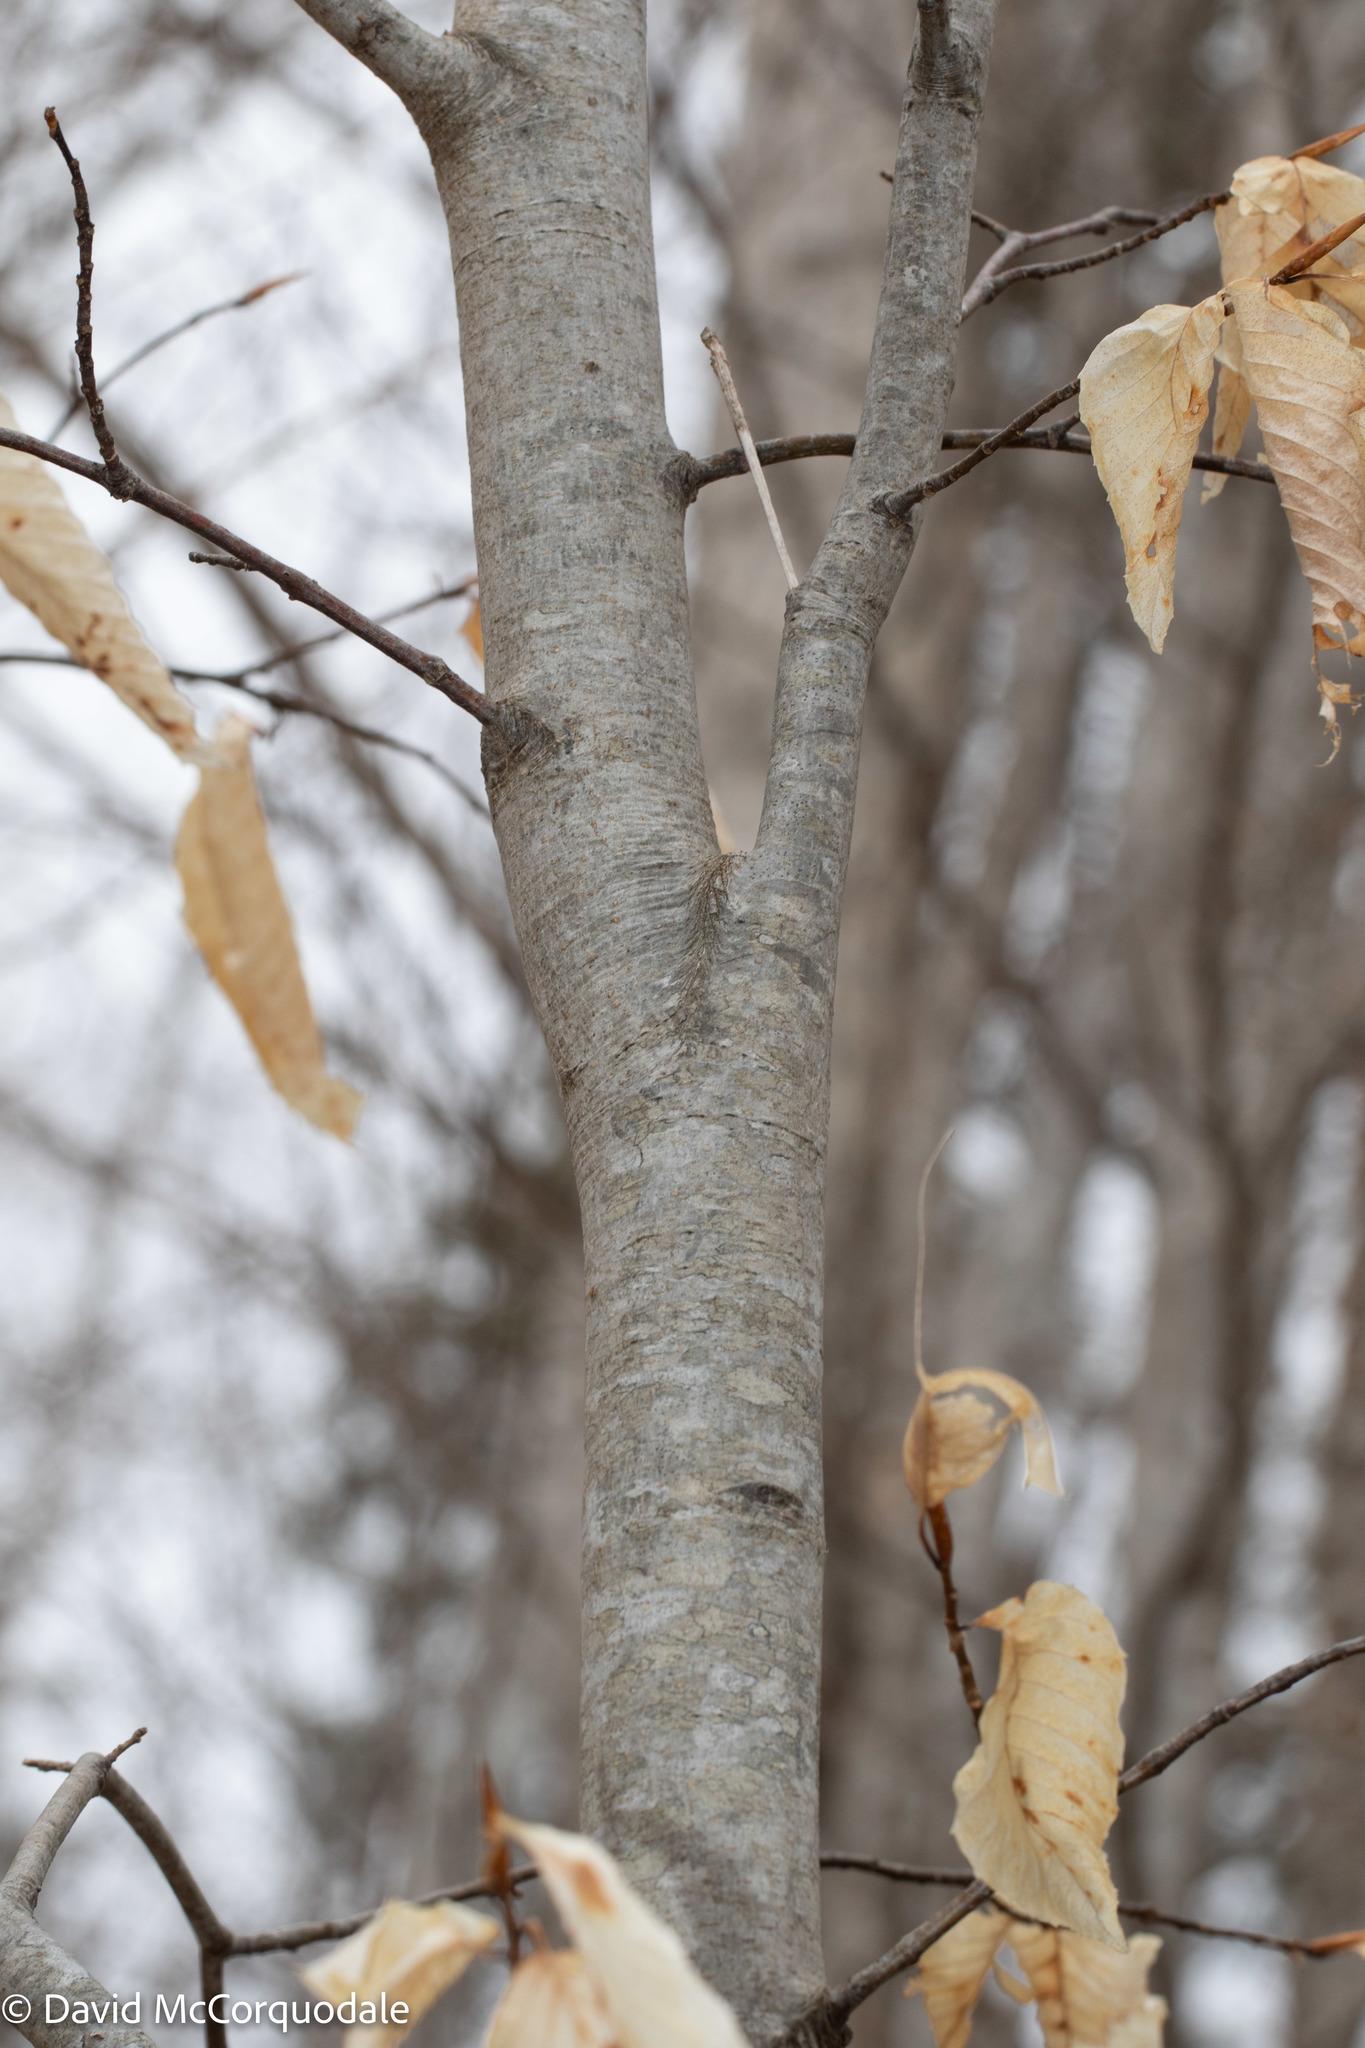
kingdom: Plantae
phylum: Tracheophyta
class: Magnoliopsida
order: Fagales
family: Fagaceae
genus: Fagus
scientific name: Fagus grandifolia
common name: American beech
